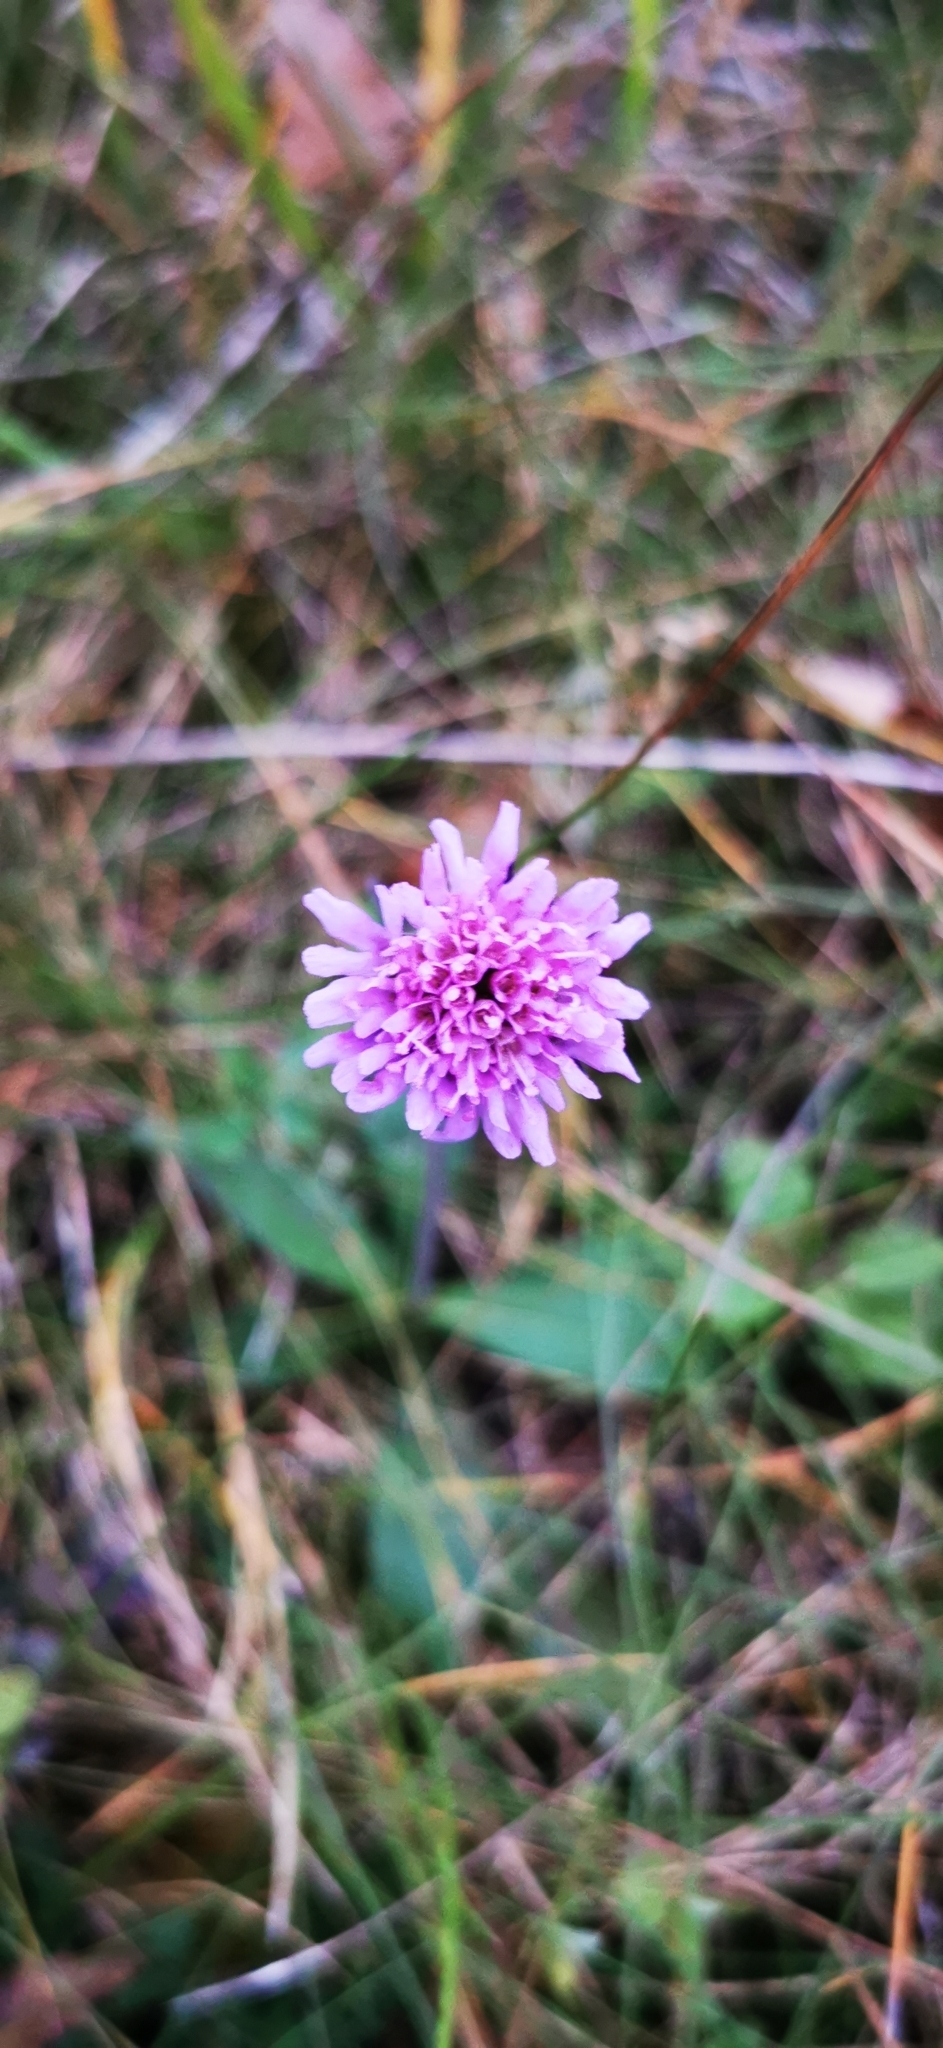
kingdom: Plantae
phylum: Tracheophyta
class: Magnoliopsida
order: Dipsacales
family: Caprifoliaceae
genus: Knautia
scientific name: Knautia arvensis
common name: Field scabiosa
